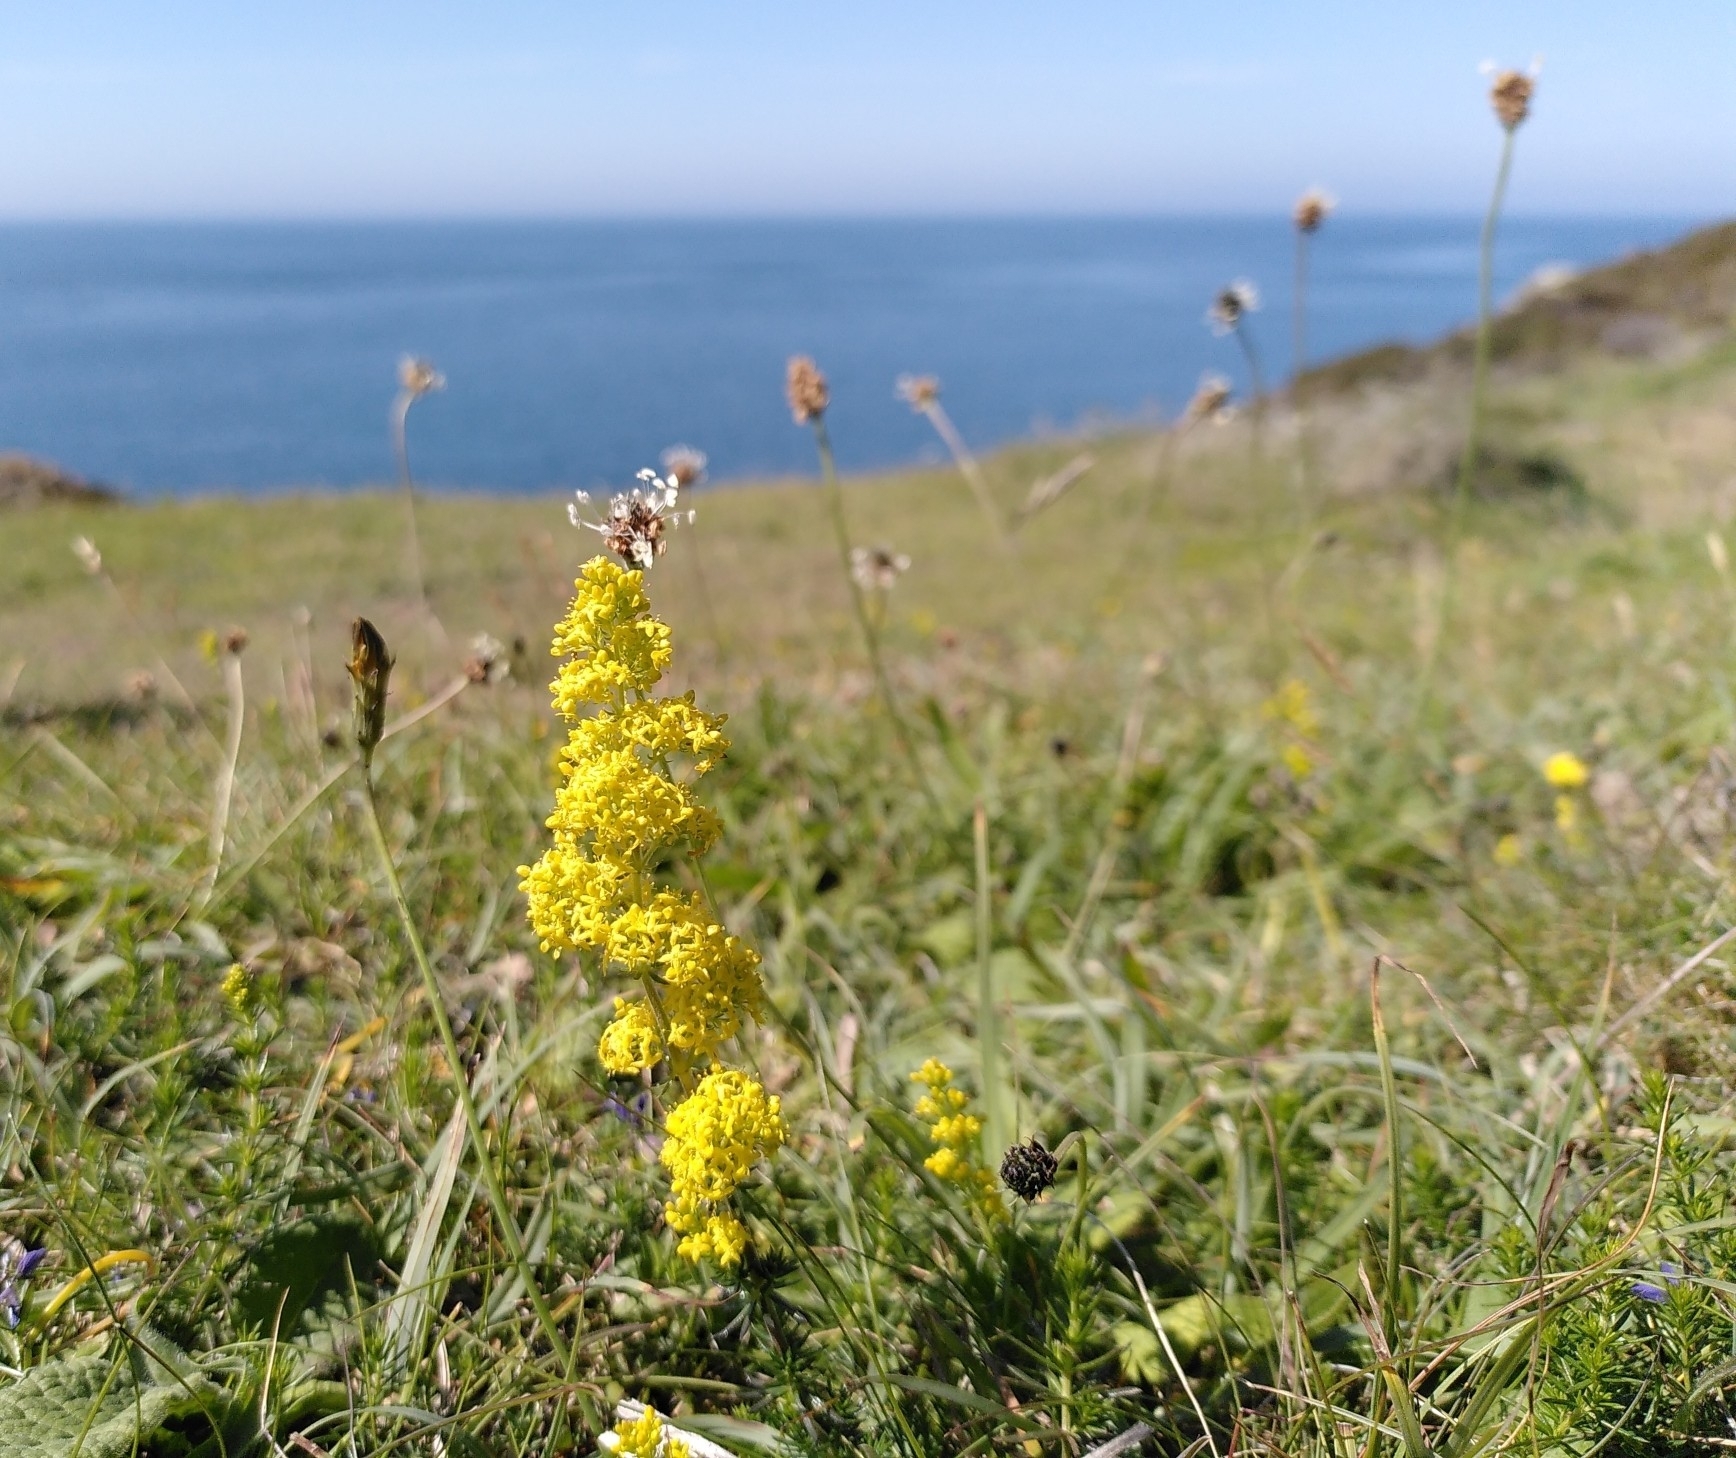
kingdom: Plantae
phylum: Tracheophyta
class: Magnoliopsida
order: Gentianales
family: Rubiaceae
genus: Galium
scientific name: Galium verum
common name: Lady's bedstraw
